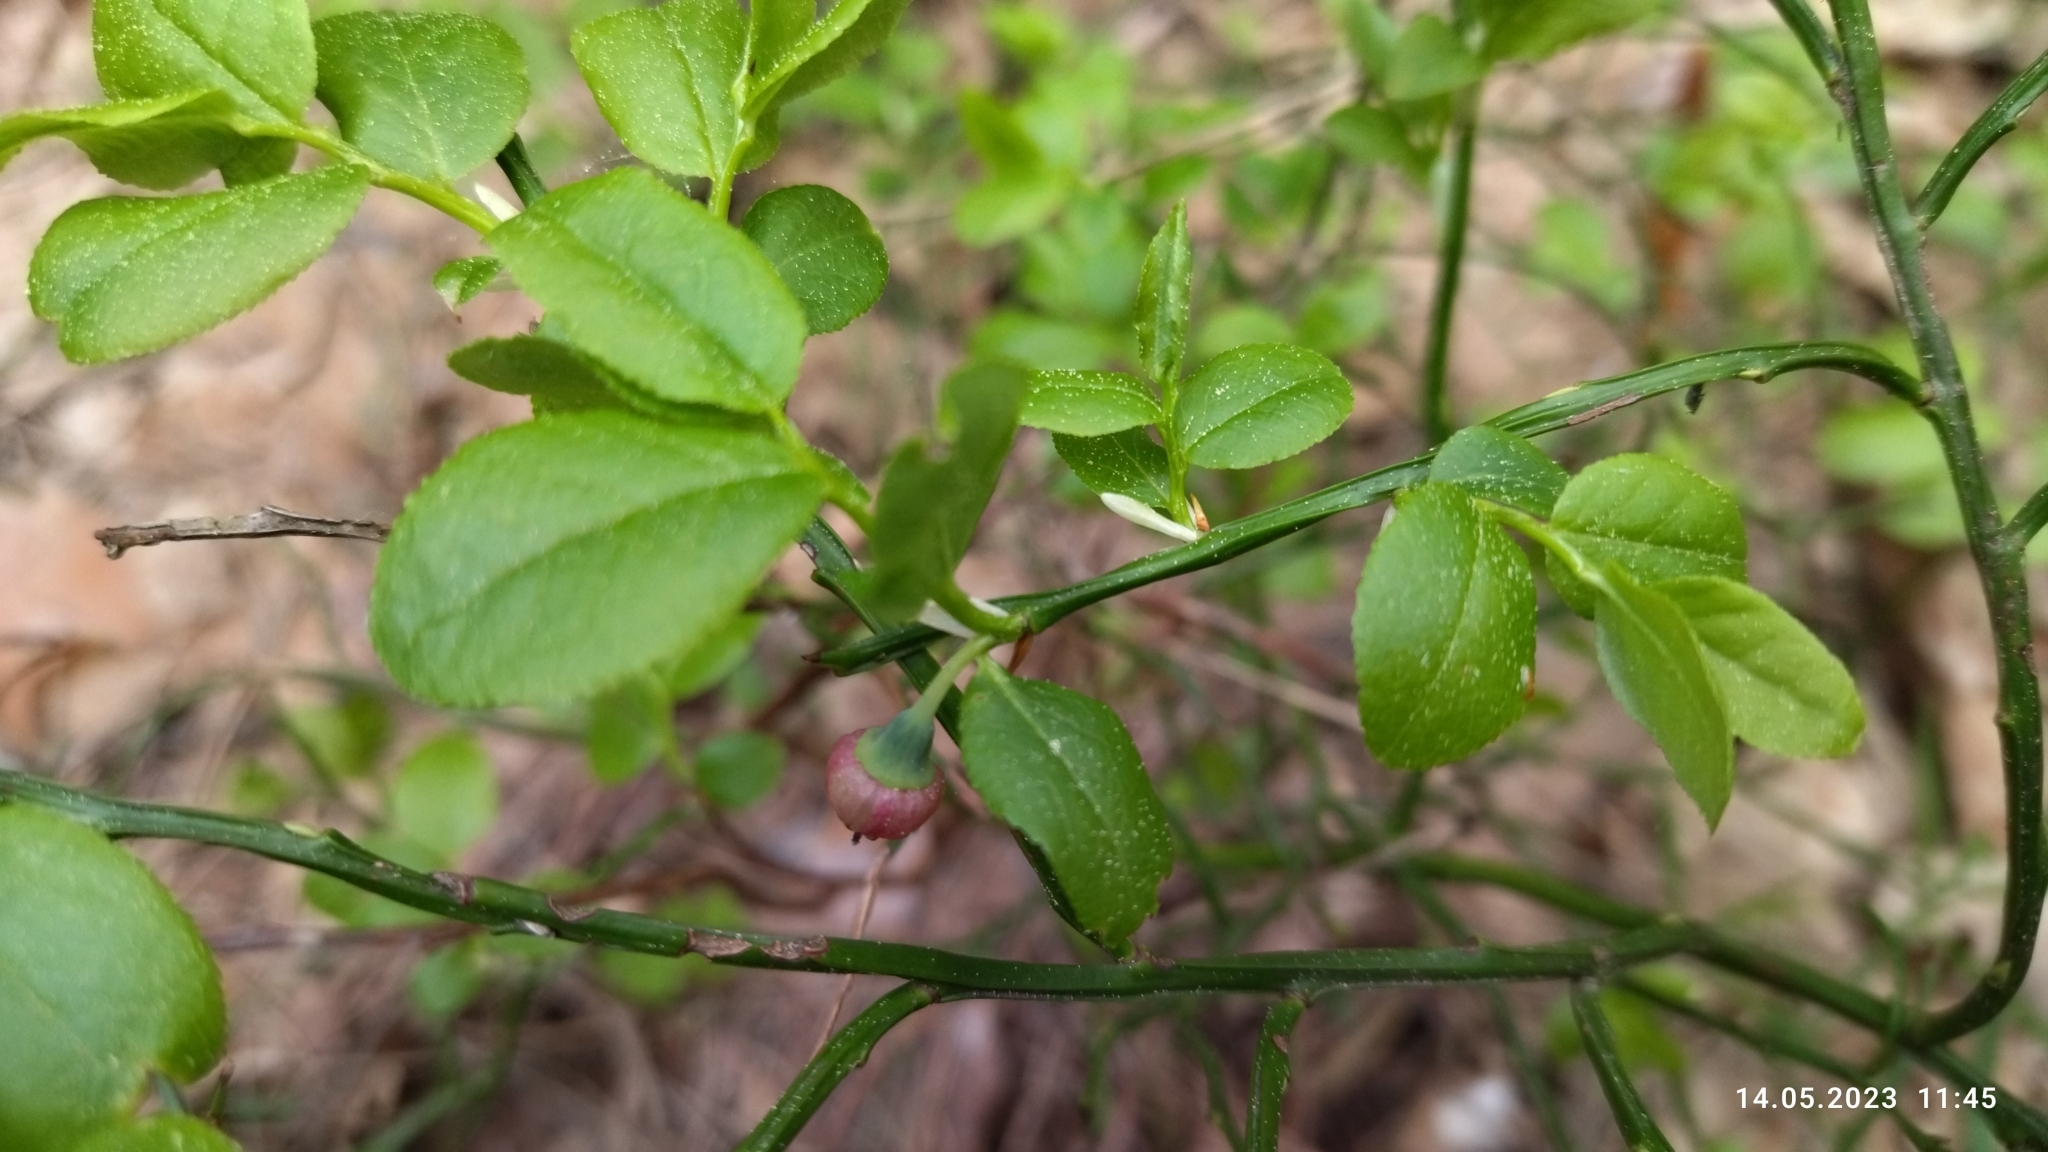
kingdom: Plantae
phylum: Tracheophyta
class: Magnoliopsida
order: Ericales
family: Ericaceae
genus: Vaccinium
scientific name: Vaccinium myrtillus
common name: Bilberry
